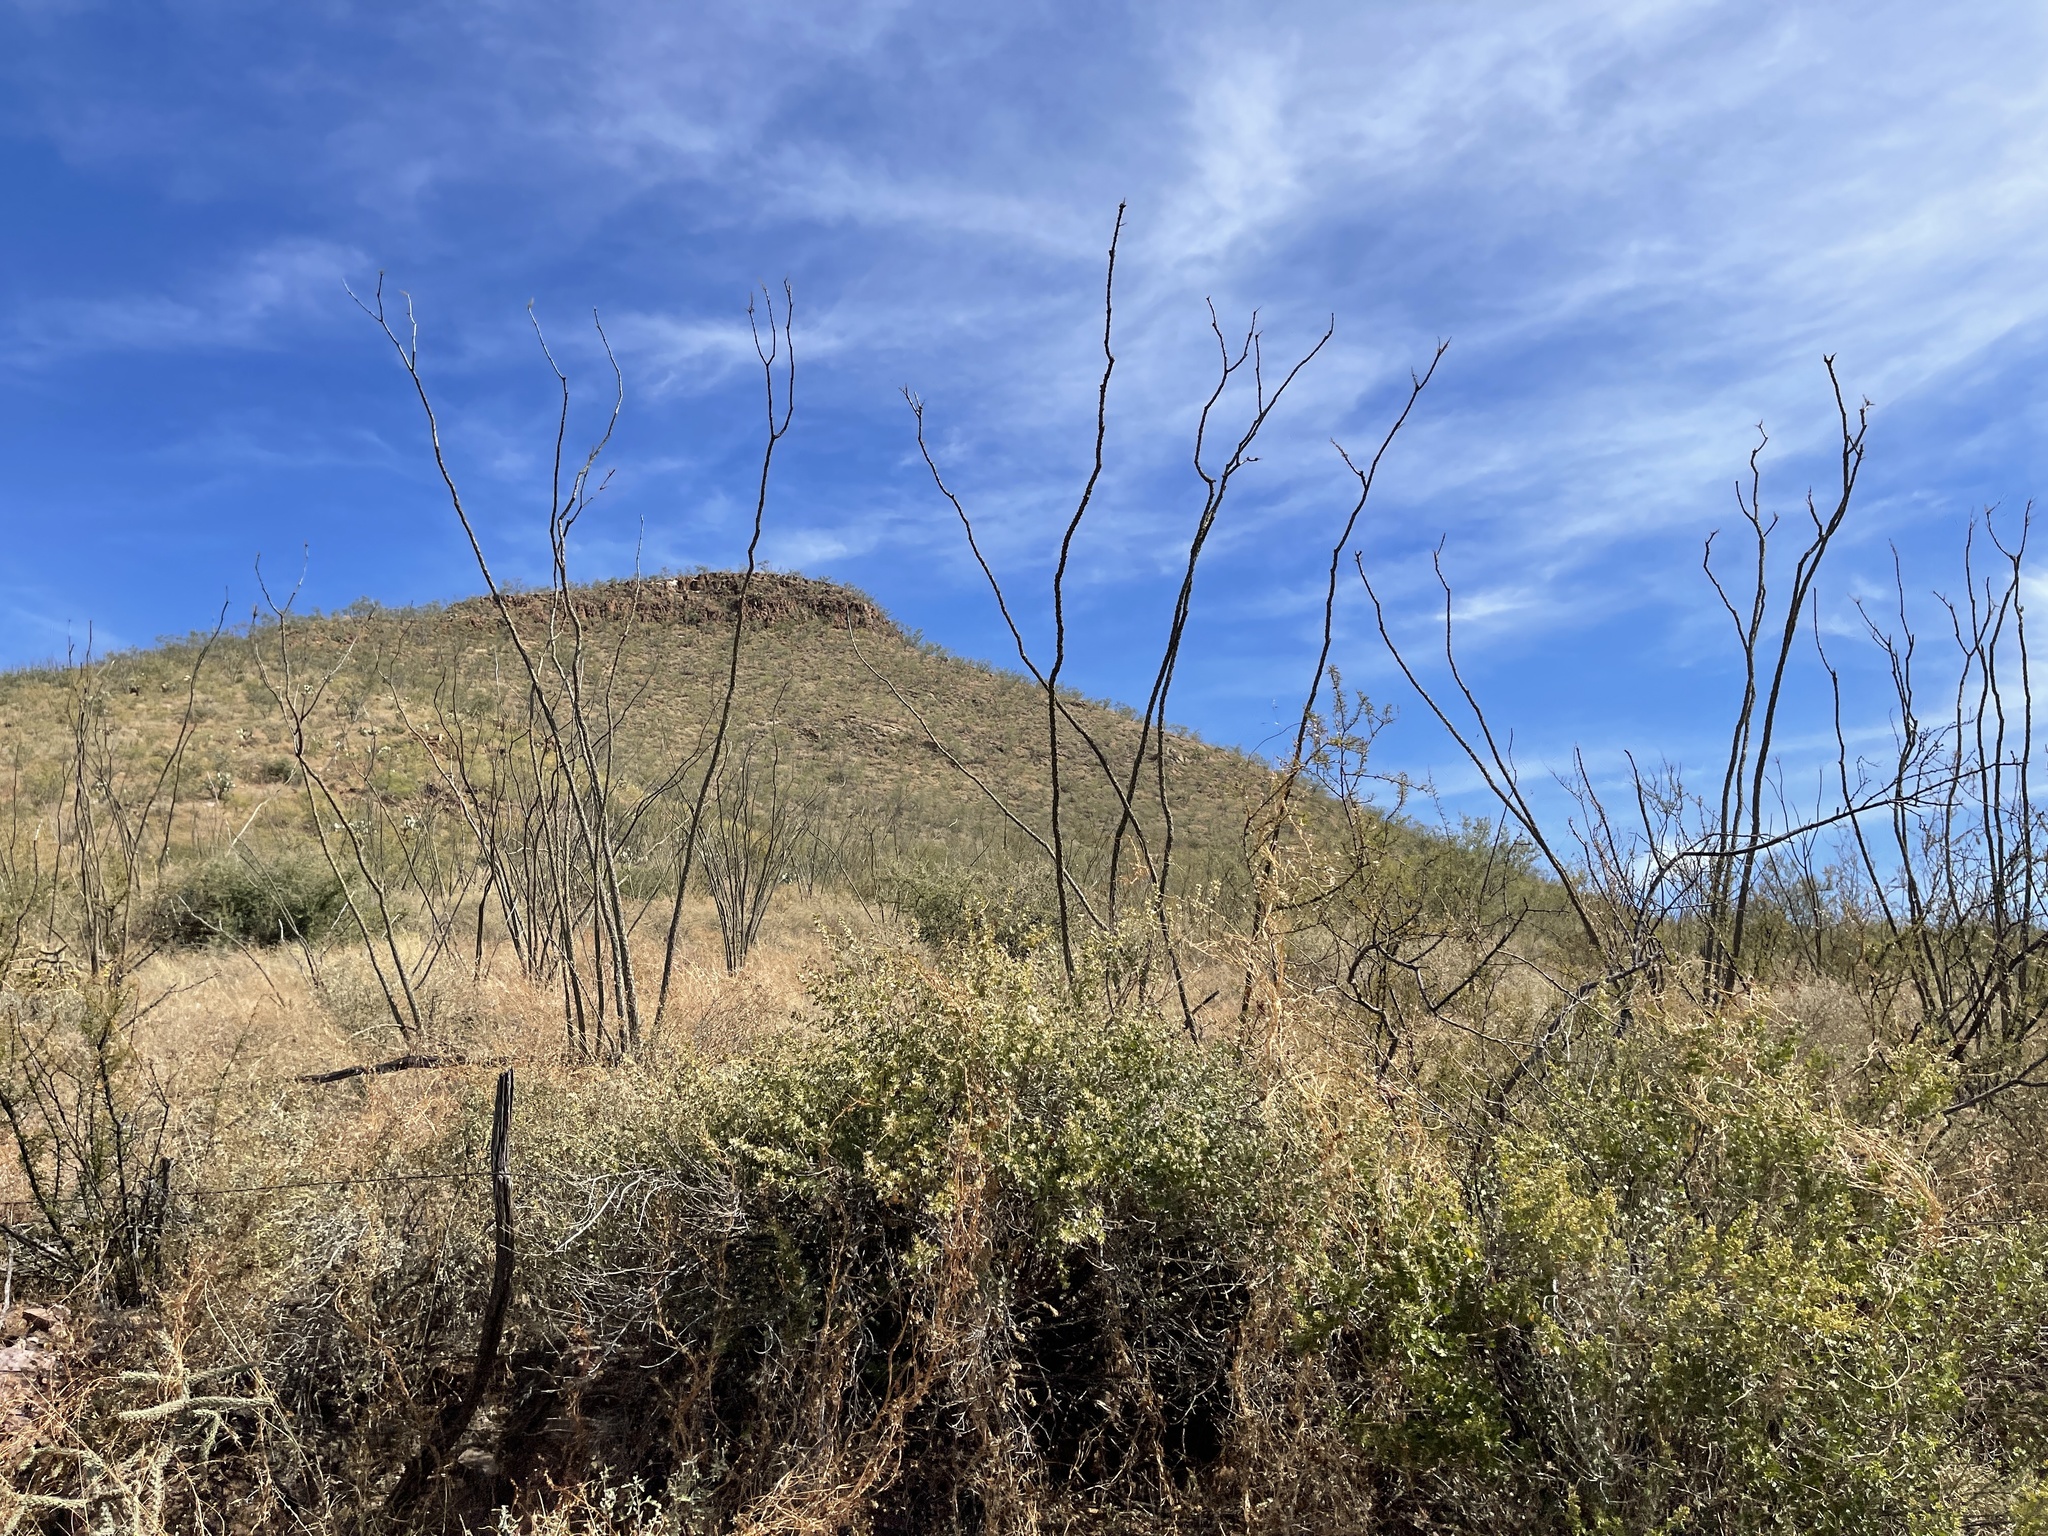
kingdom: Plantae
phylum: Tracheophyta
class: Magnoliopsida
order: Ericales
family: Fouquieriaceae
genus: Fouquieria
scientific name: Fouquieria splendens
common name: Vine-cactus
